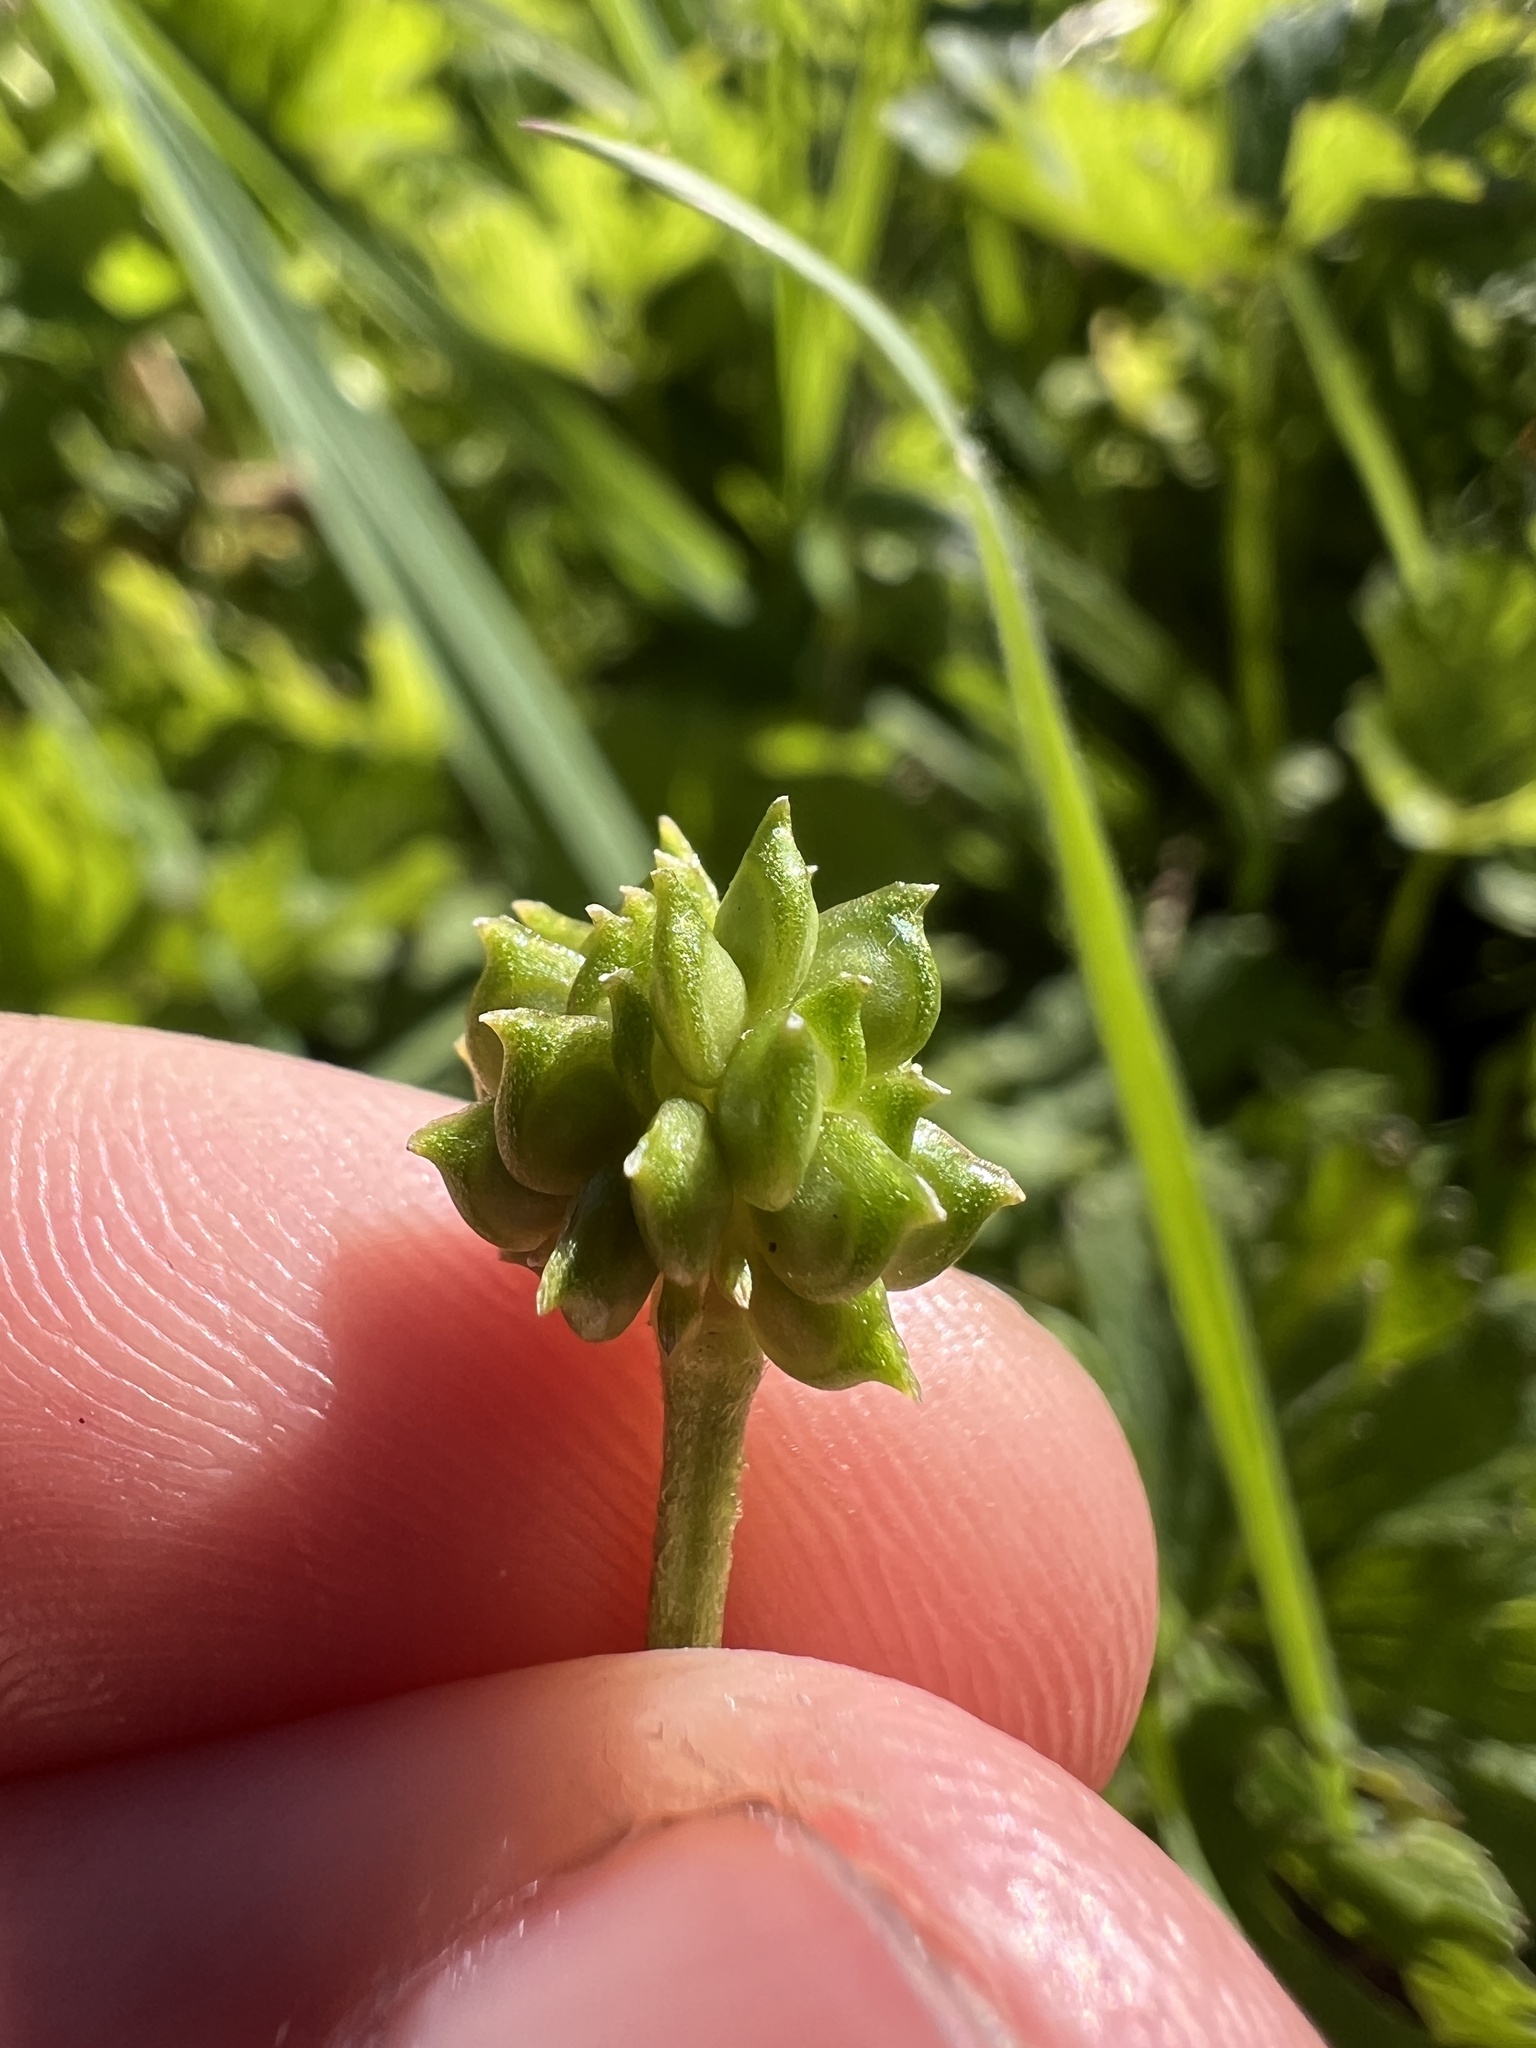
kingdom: Plantae
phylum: Tracheophyta
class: Magnoliopsida
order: Ranunculales
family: Ranunculaceae
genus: Ranunculus
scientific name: Ranunculus repens
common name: Creeping buttercup
